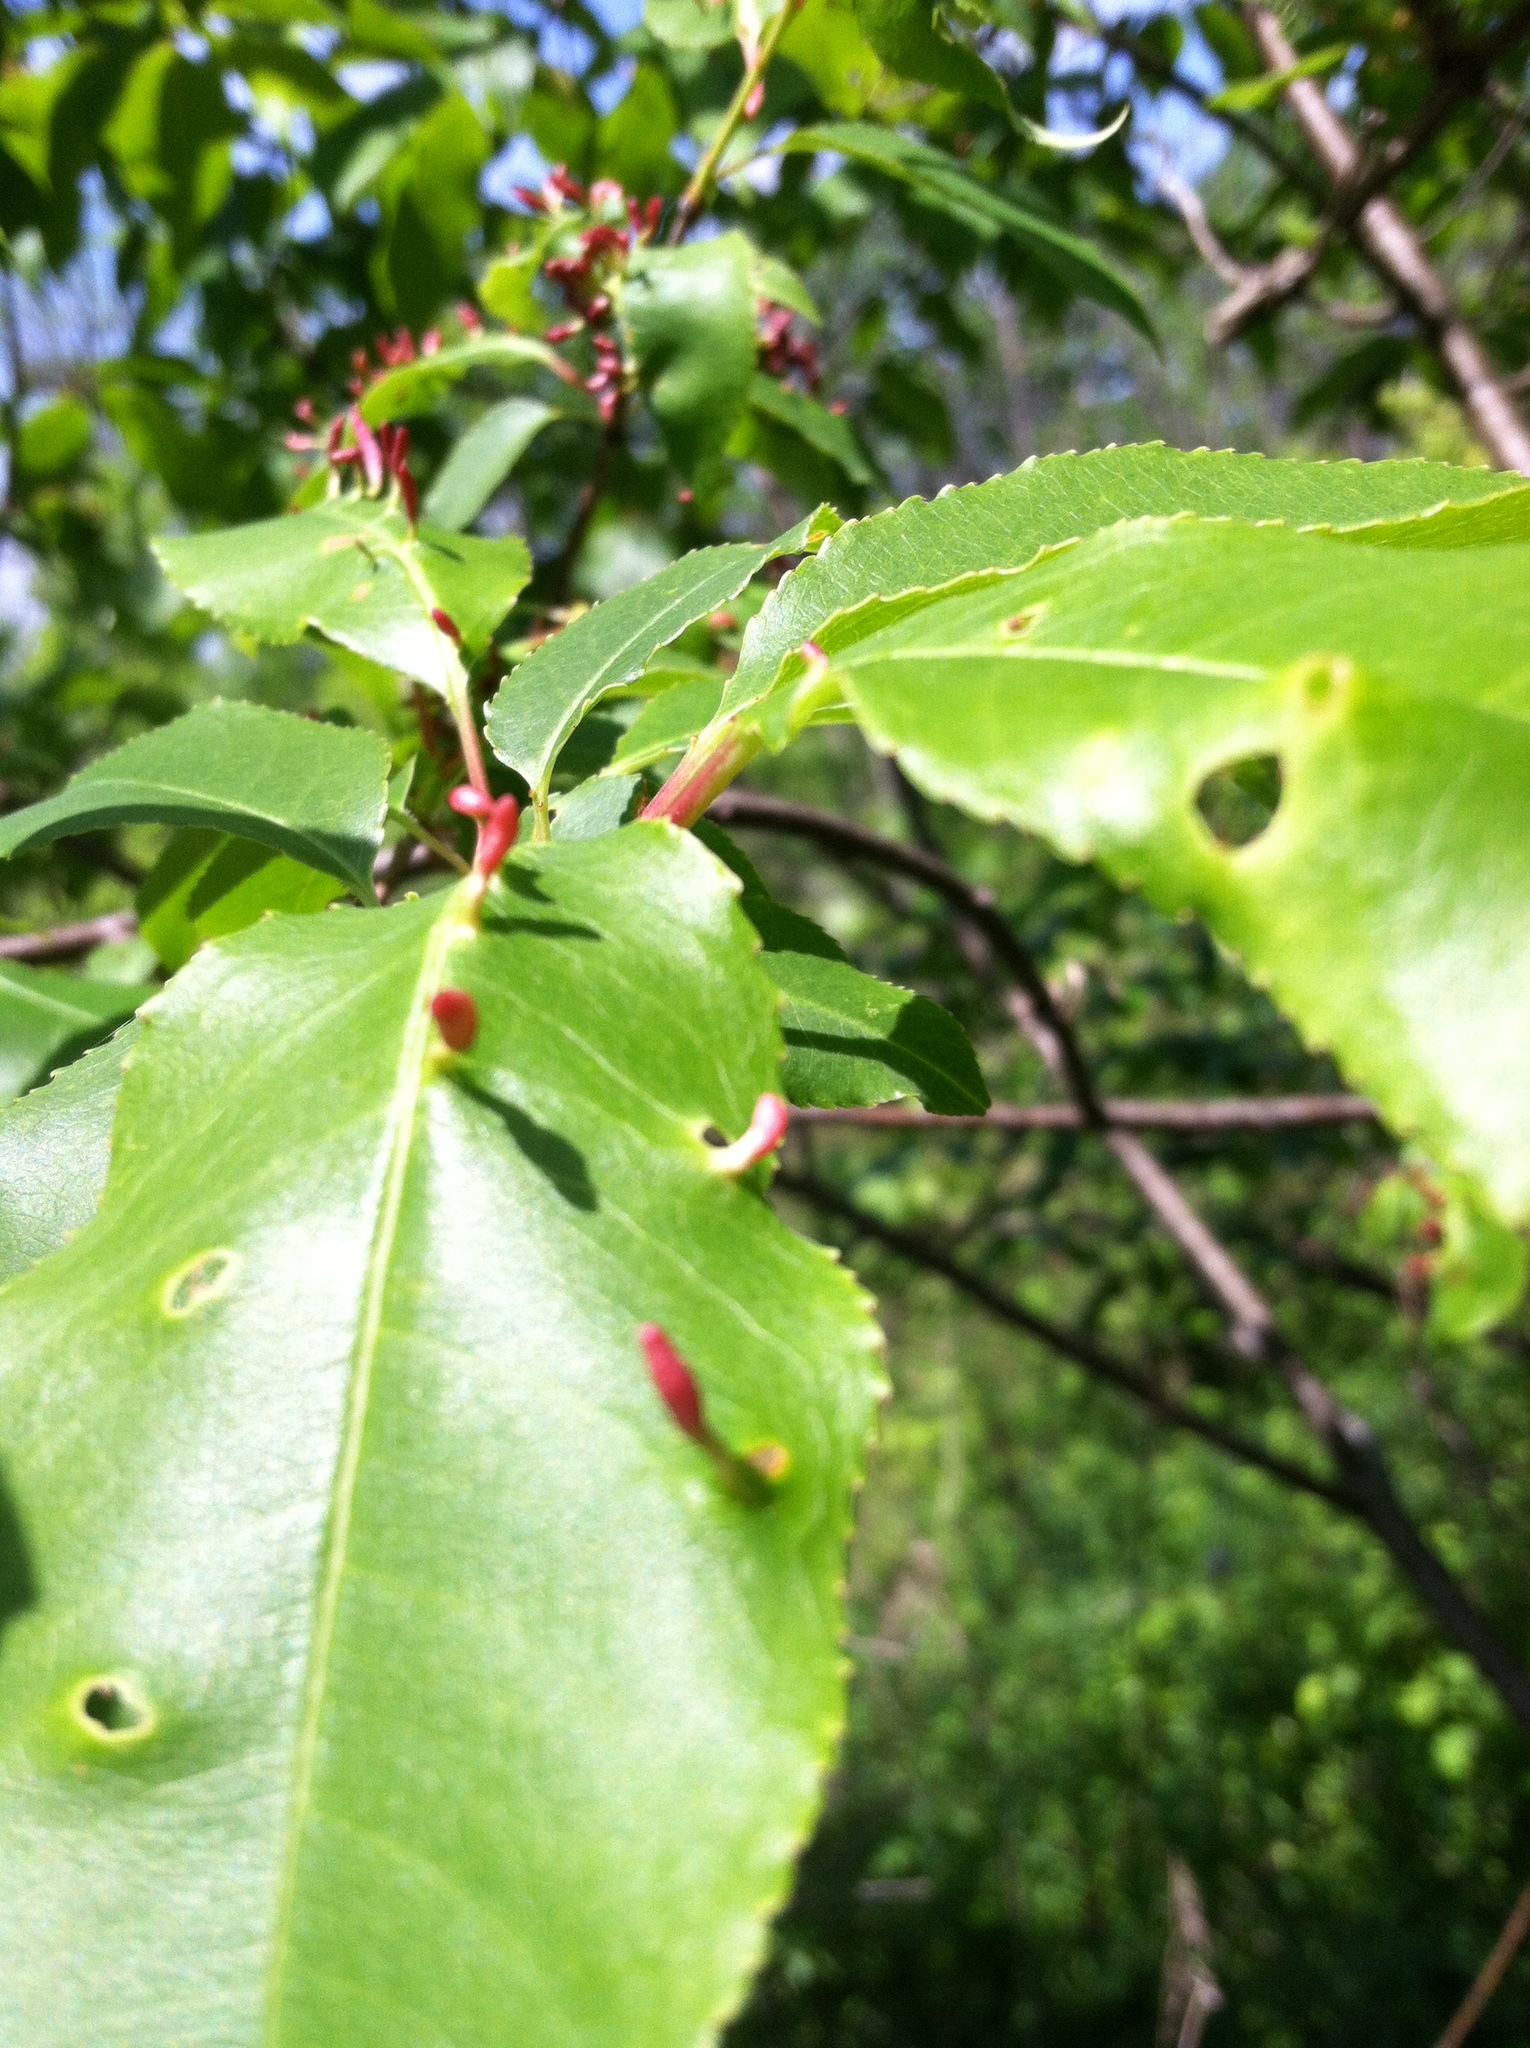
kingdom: Animalia
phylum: Arthropoda
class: Arachnida
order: Trombidiformes
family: Eriophyidae
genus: Eriophyes
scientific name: Eriophyes
